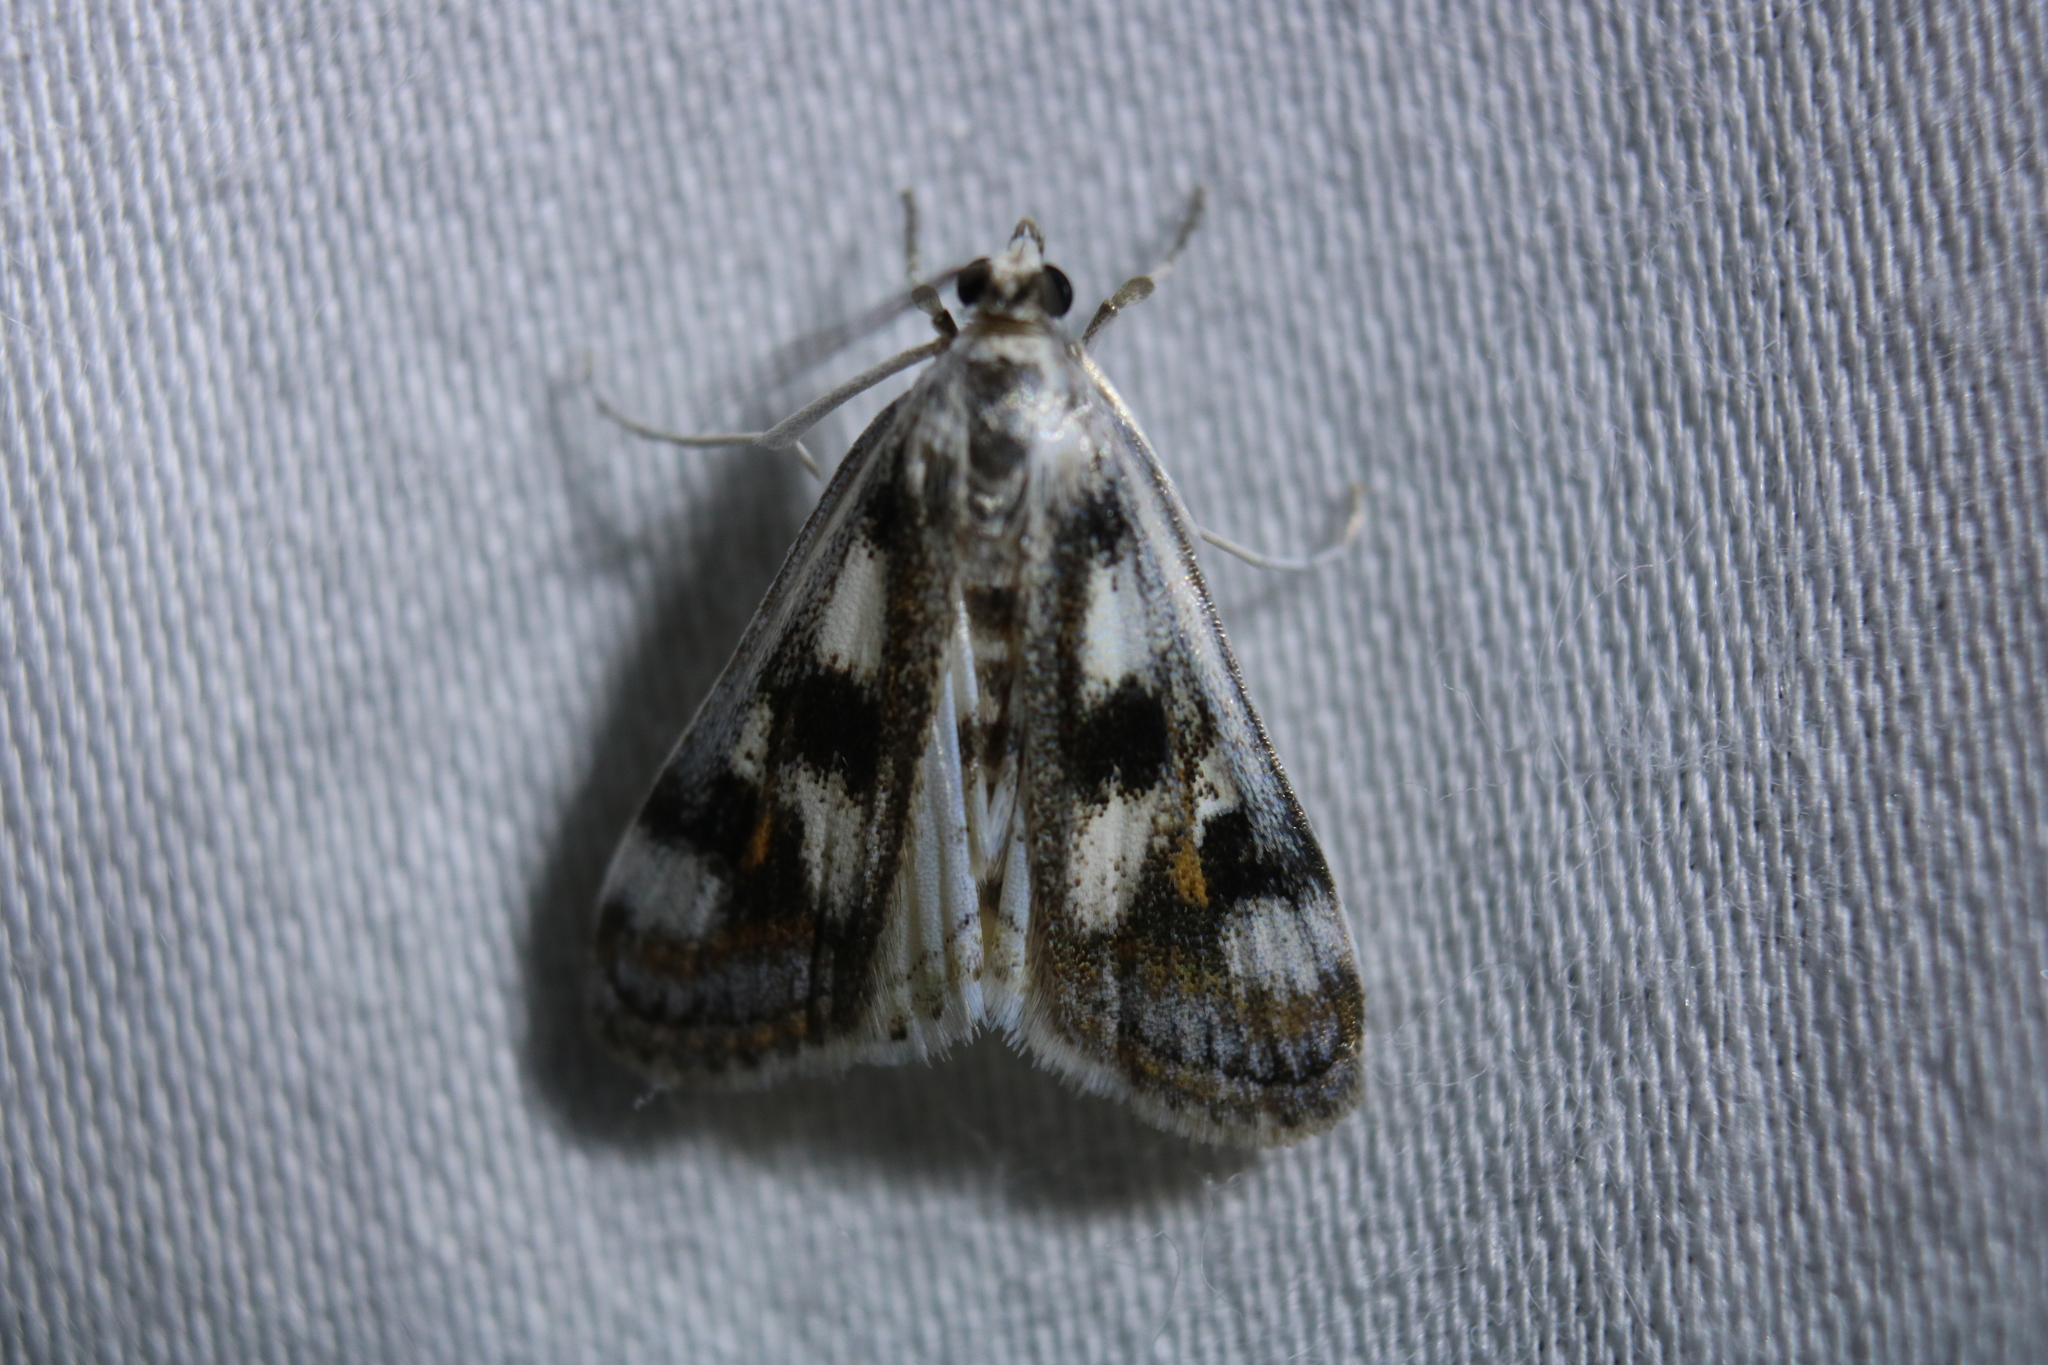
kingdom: Animalia
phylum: Arthropoda
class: Insecta
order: Lepidoptera
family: Crambidae
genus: Parapoynx
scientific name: Parapoynx maculalis
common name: Polymorphic pondweed moth
